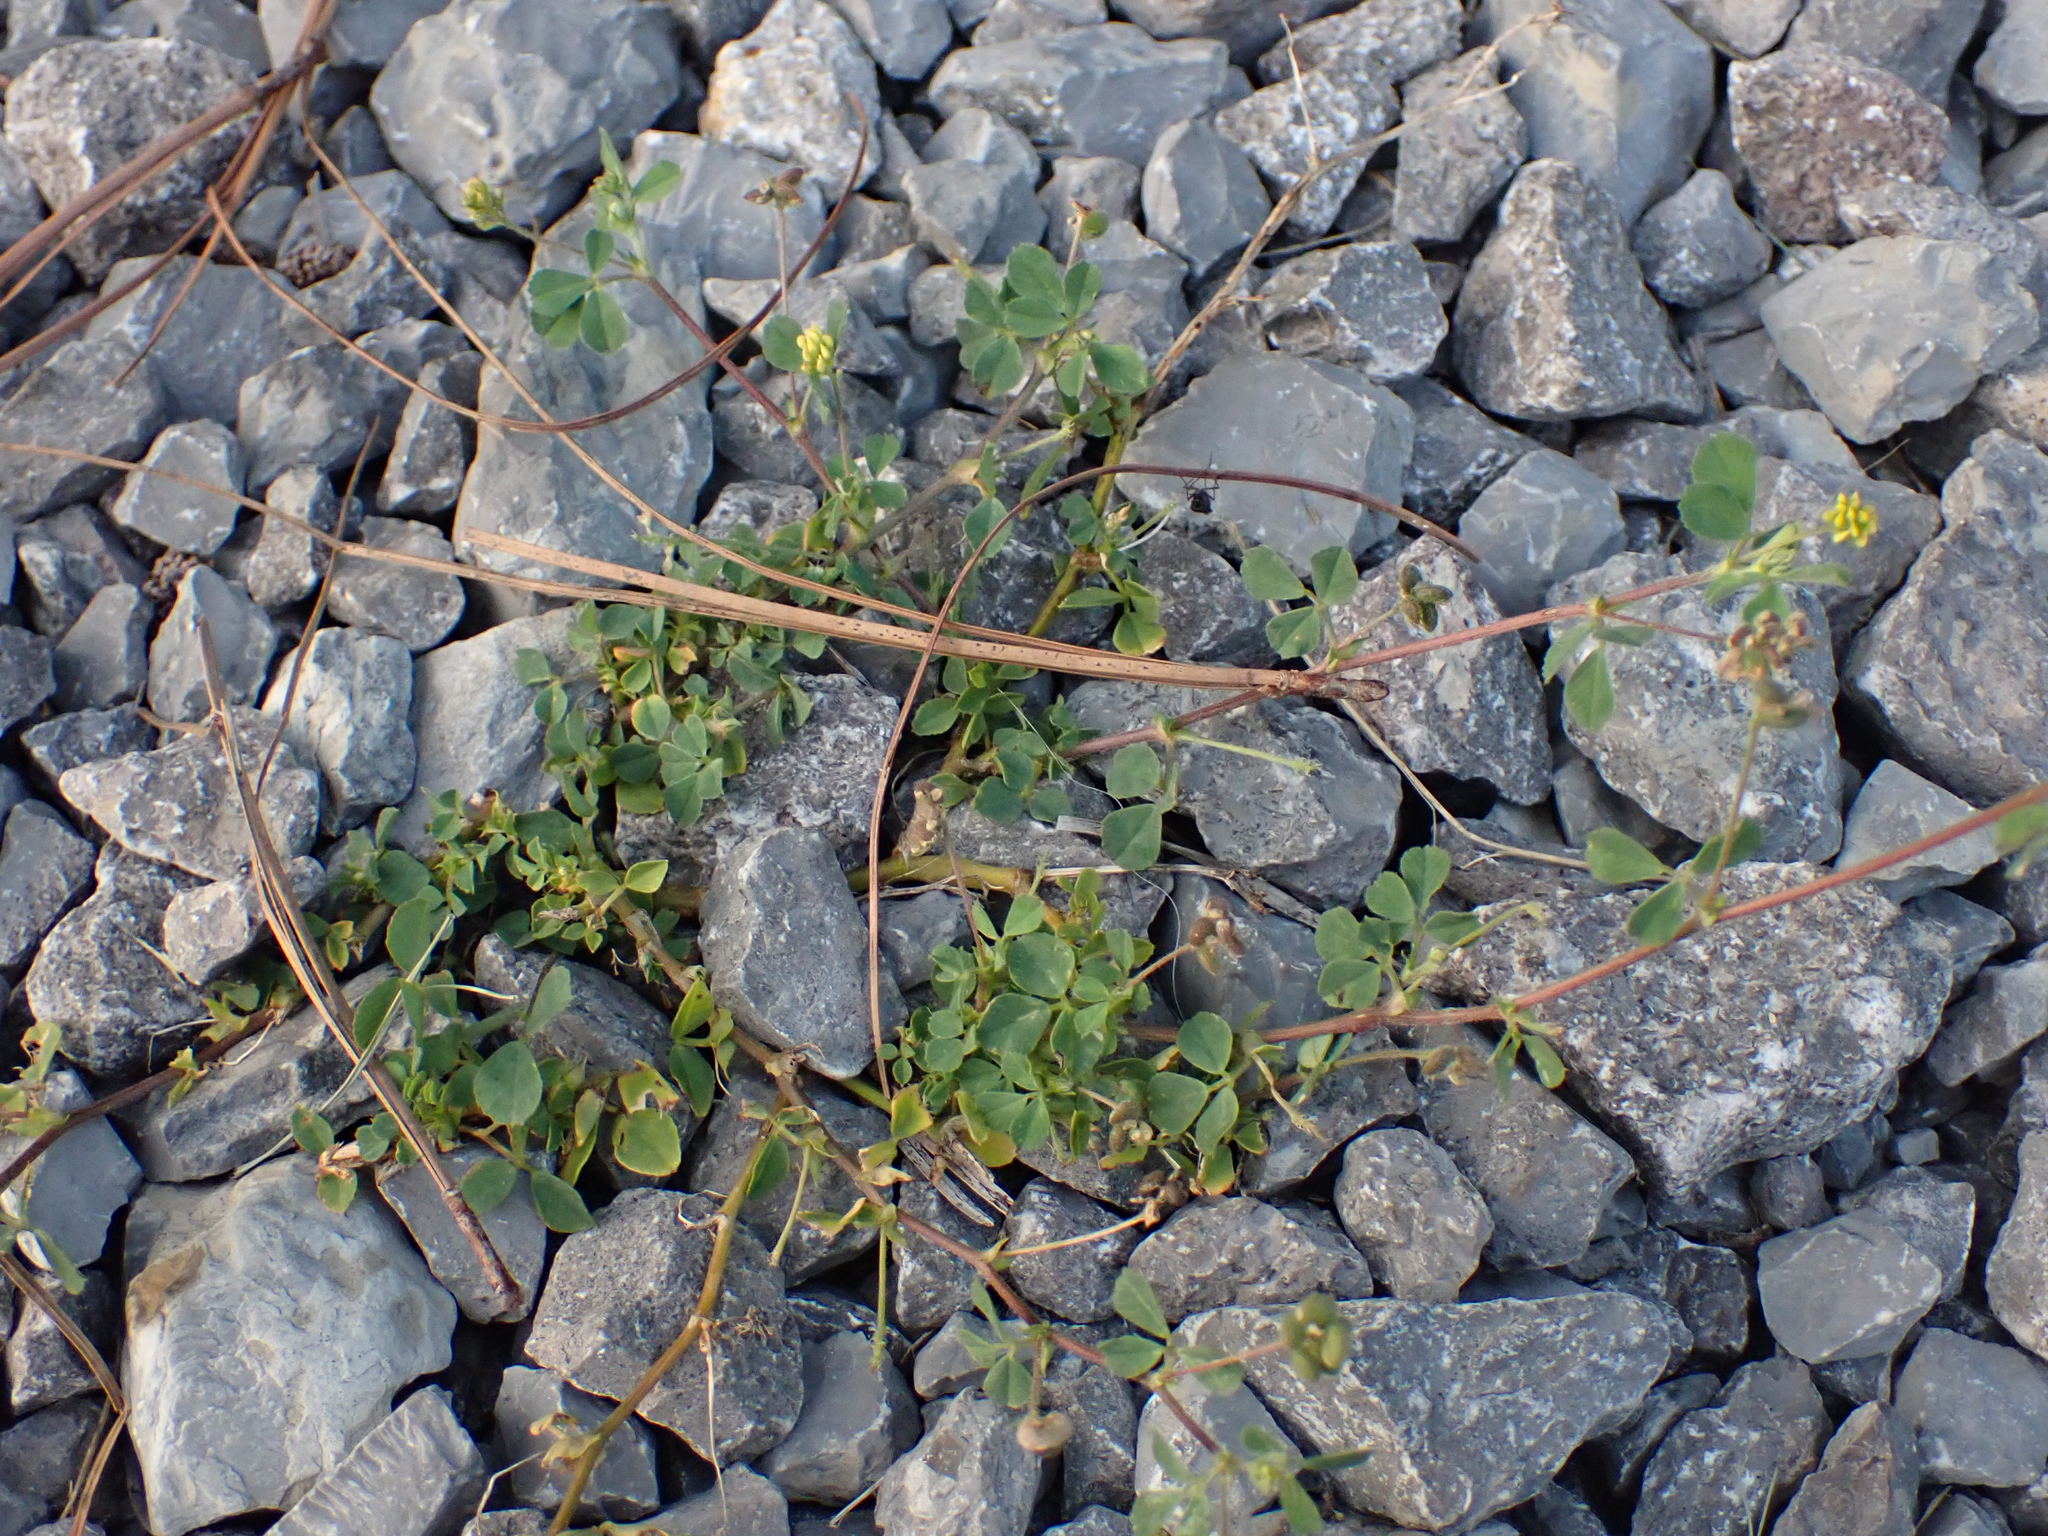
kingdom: Plantae
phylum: Tracheophyta
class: Magnoliopsida
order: Fabales
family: Fabaceae
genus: Medicago
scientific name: Medicago lupulina
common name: Black medick
